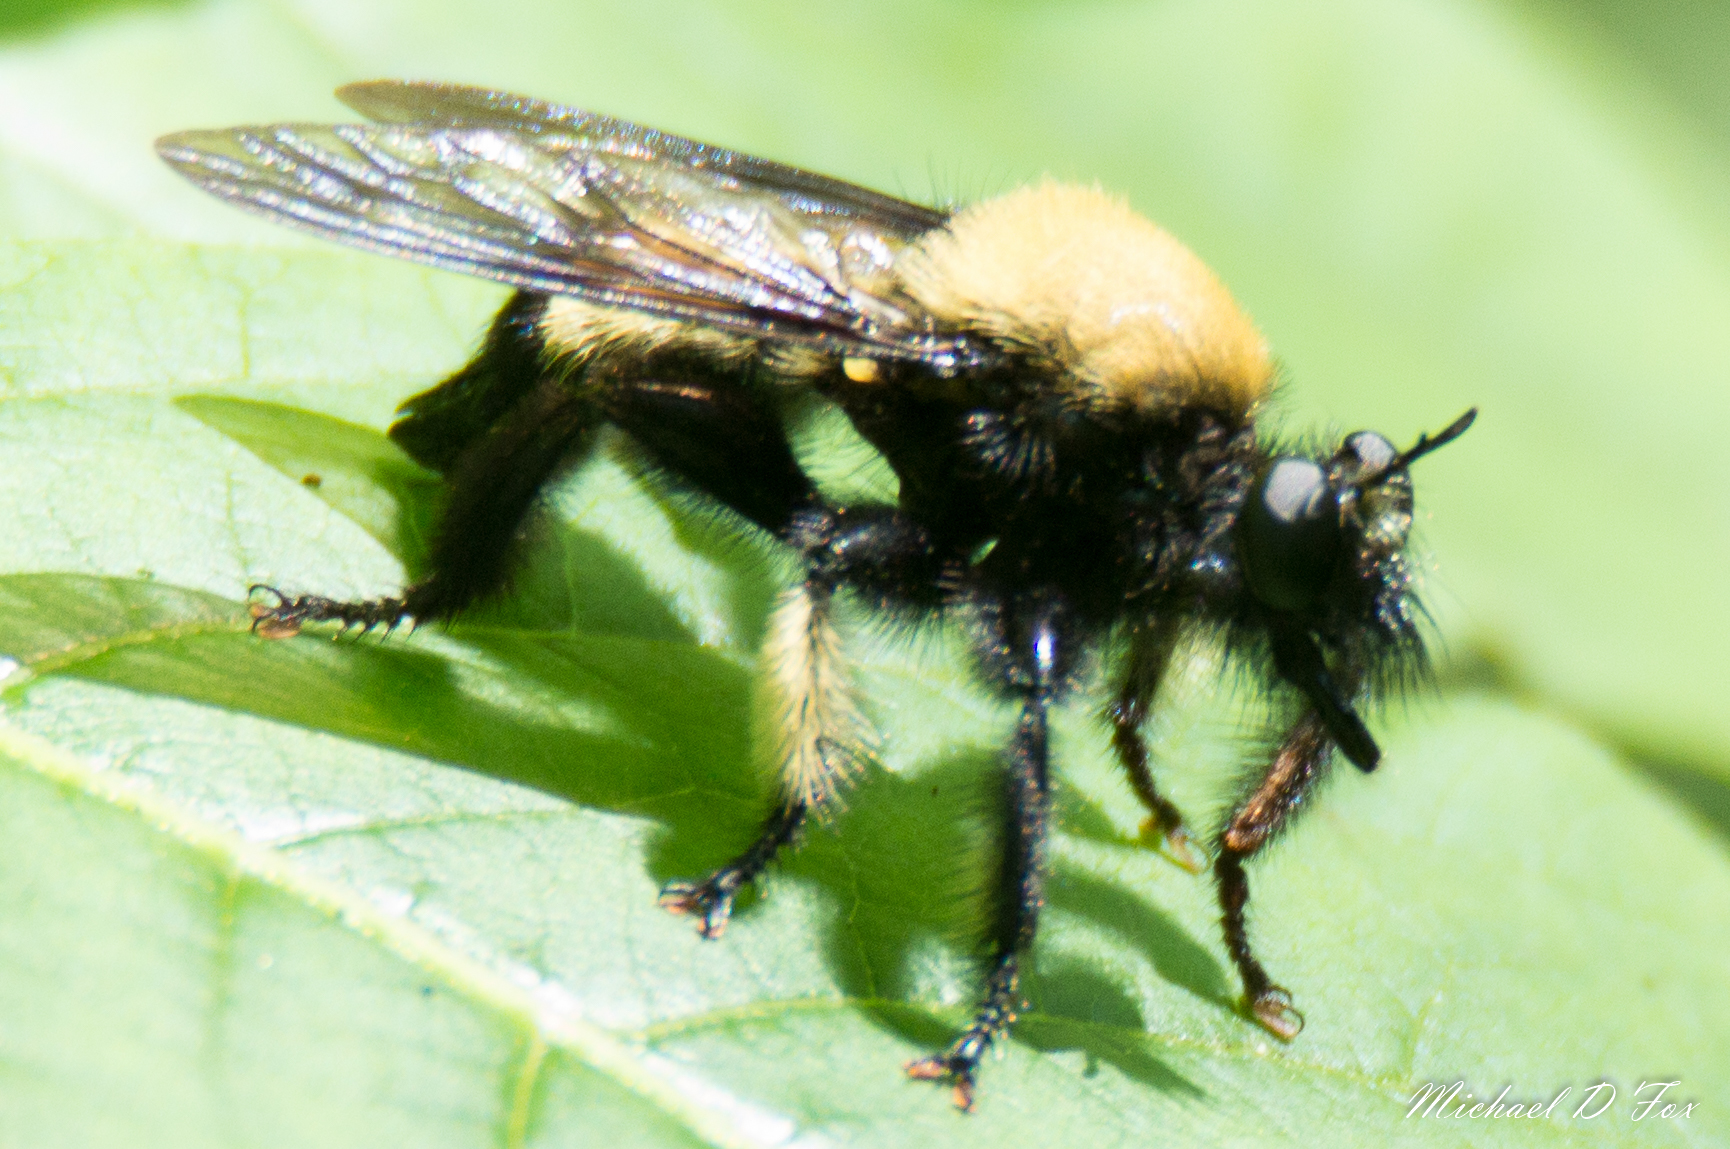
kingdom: Animalia
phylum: Arthropoda
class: Insecta
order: Diptera
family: Asilidae
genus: Laphria
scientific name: Laphria macquarti
